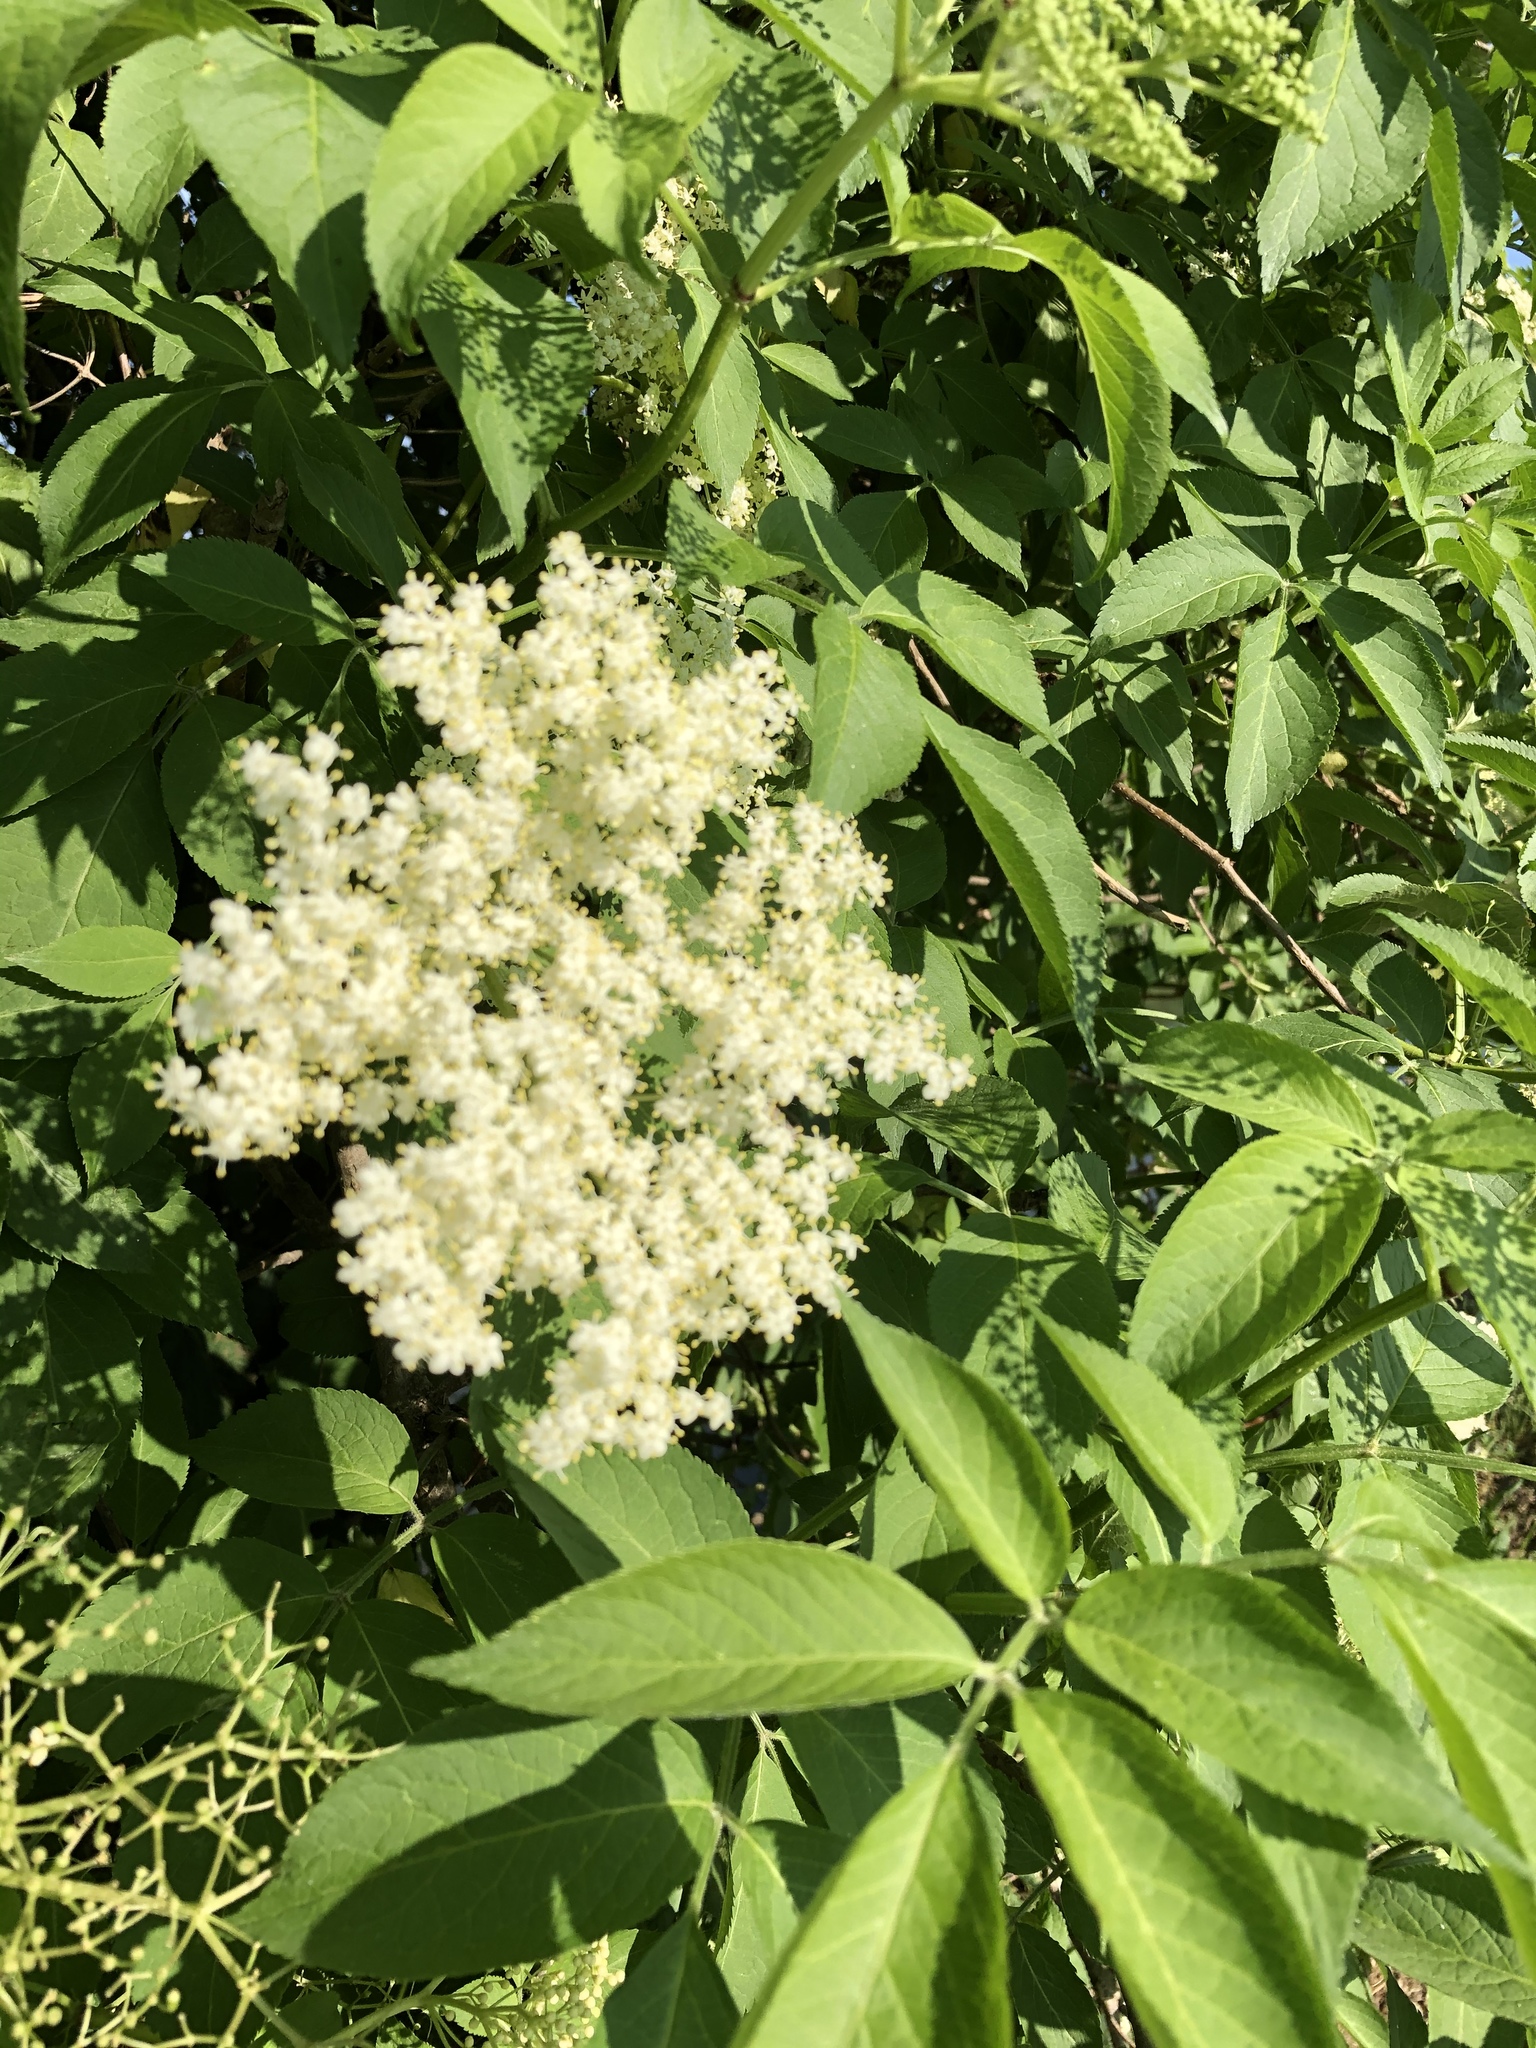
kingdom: Plantae
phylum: Tracheophyta
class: Magnoliopsida
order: Dipsacales
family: Viburnaceae
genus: Sambucus
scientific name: Sambucus nigra
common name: Elder
